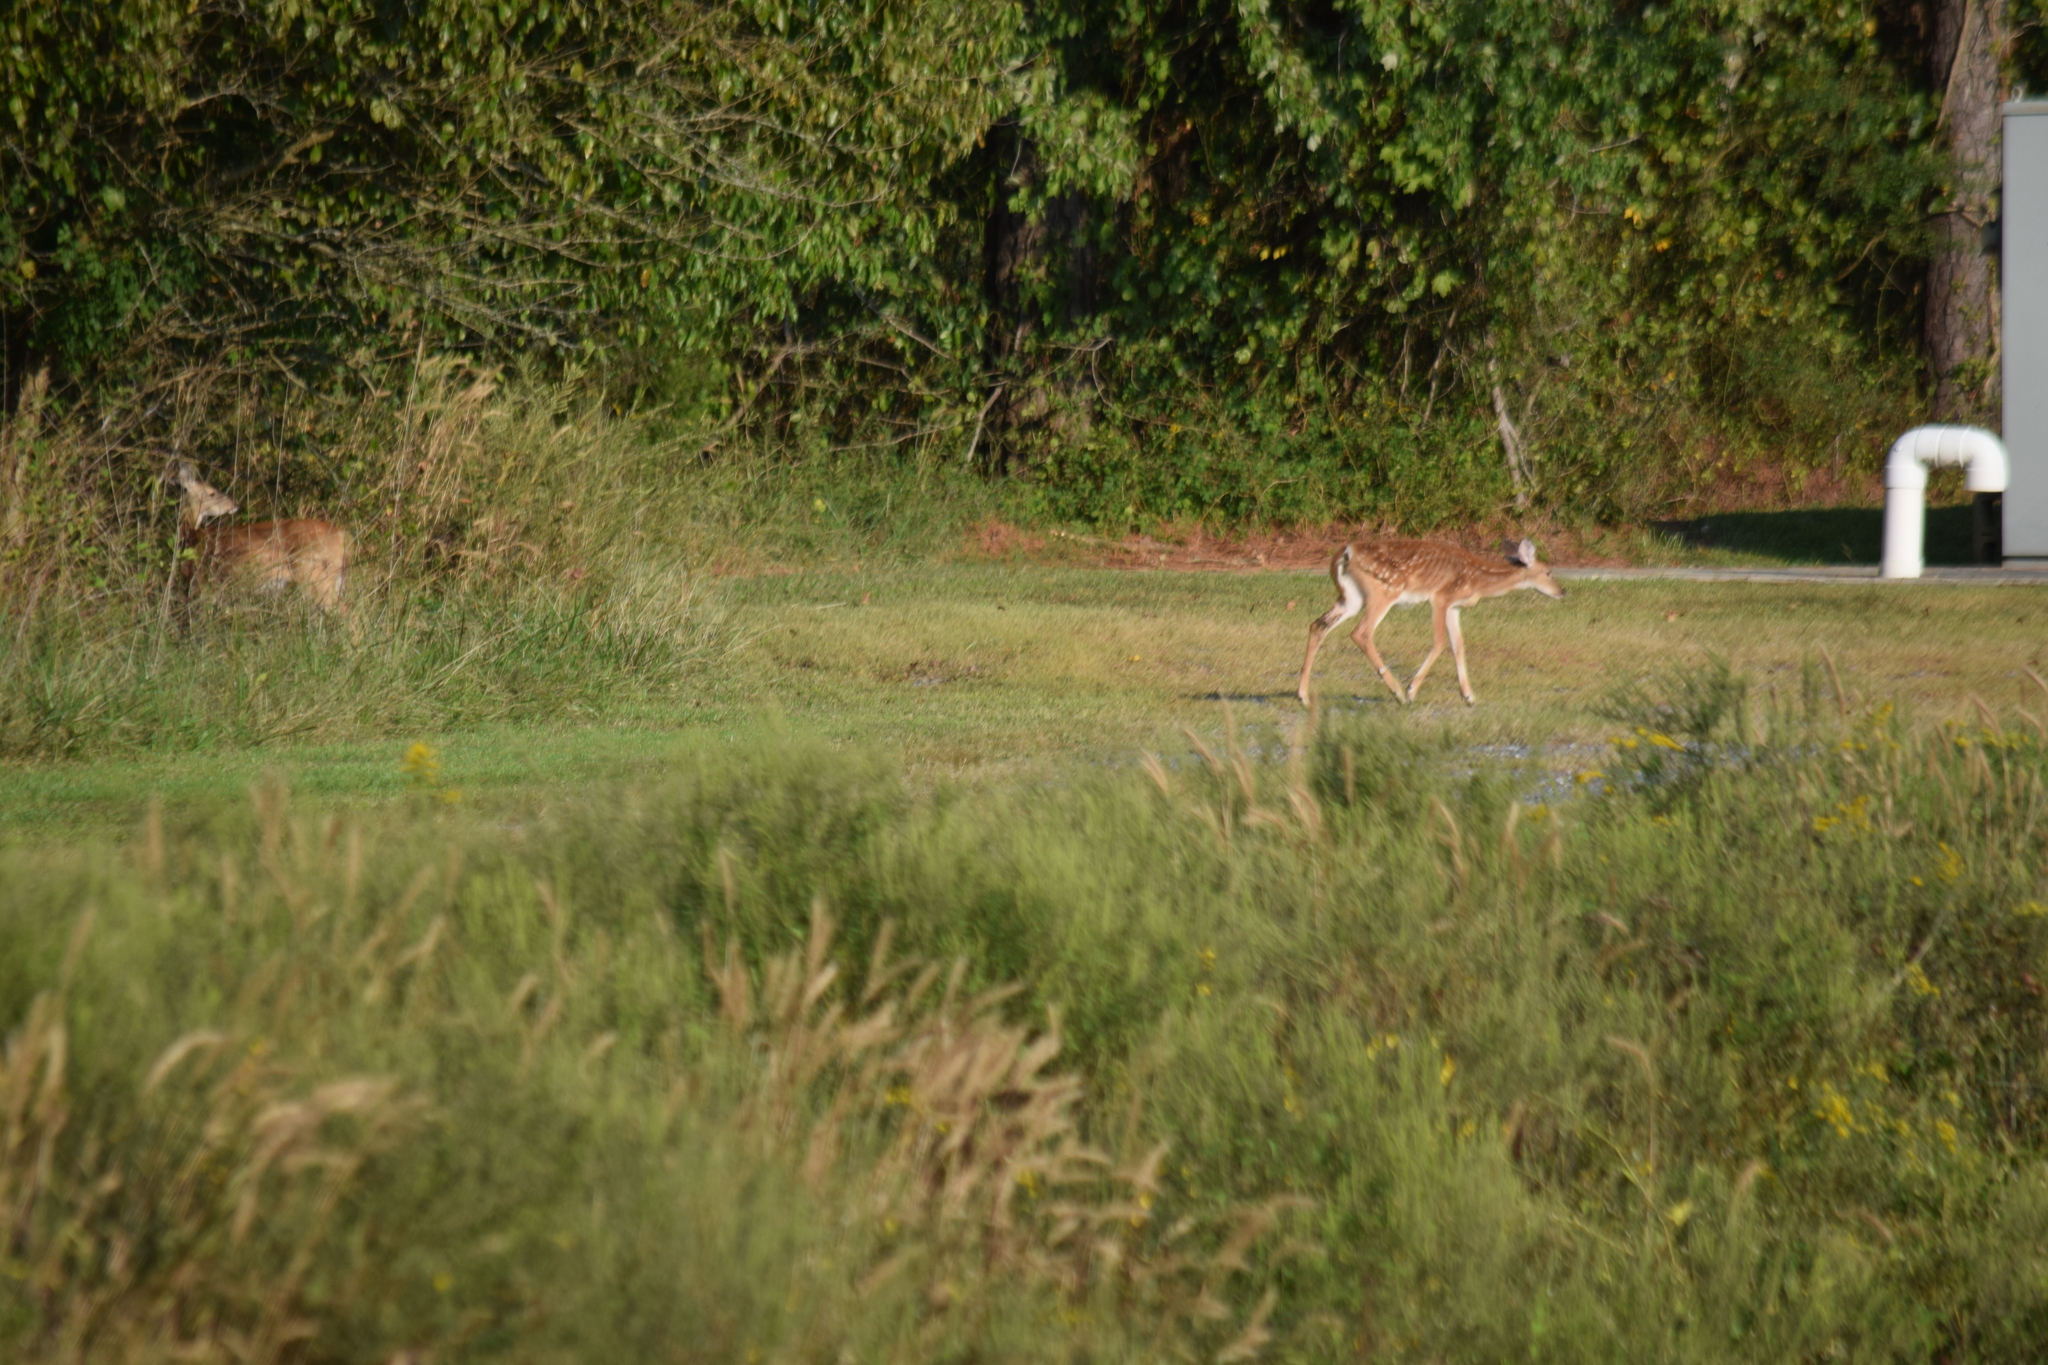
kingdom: Animalia
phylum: Chordata
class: Mammalia
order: Artiodactyla
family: Cervidae
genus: Odocoileus
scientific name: Odocoileus virginianus
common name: White-tailed deer
